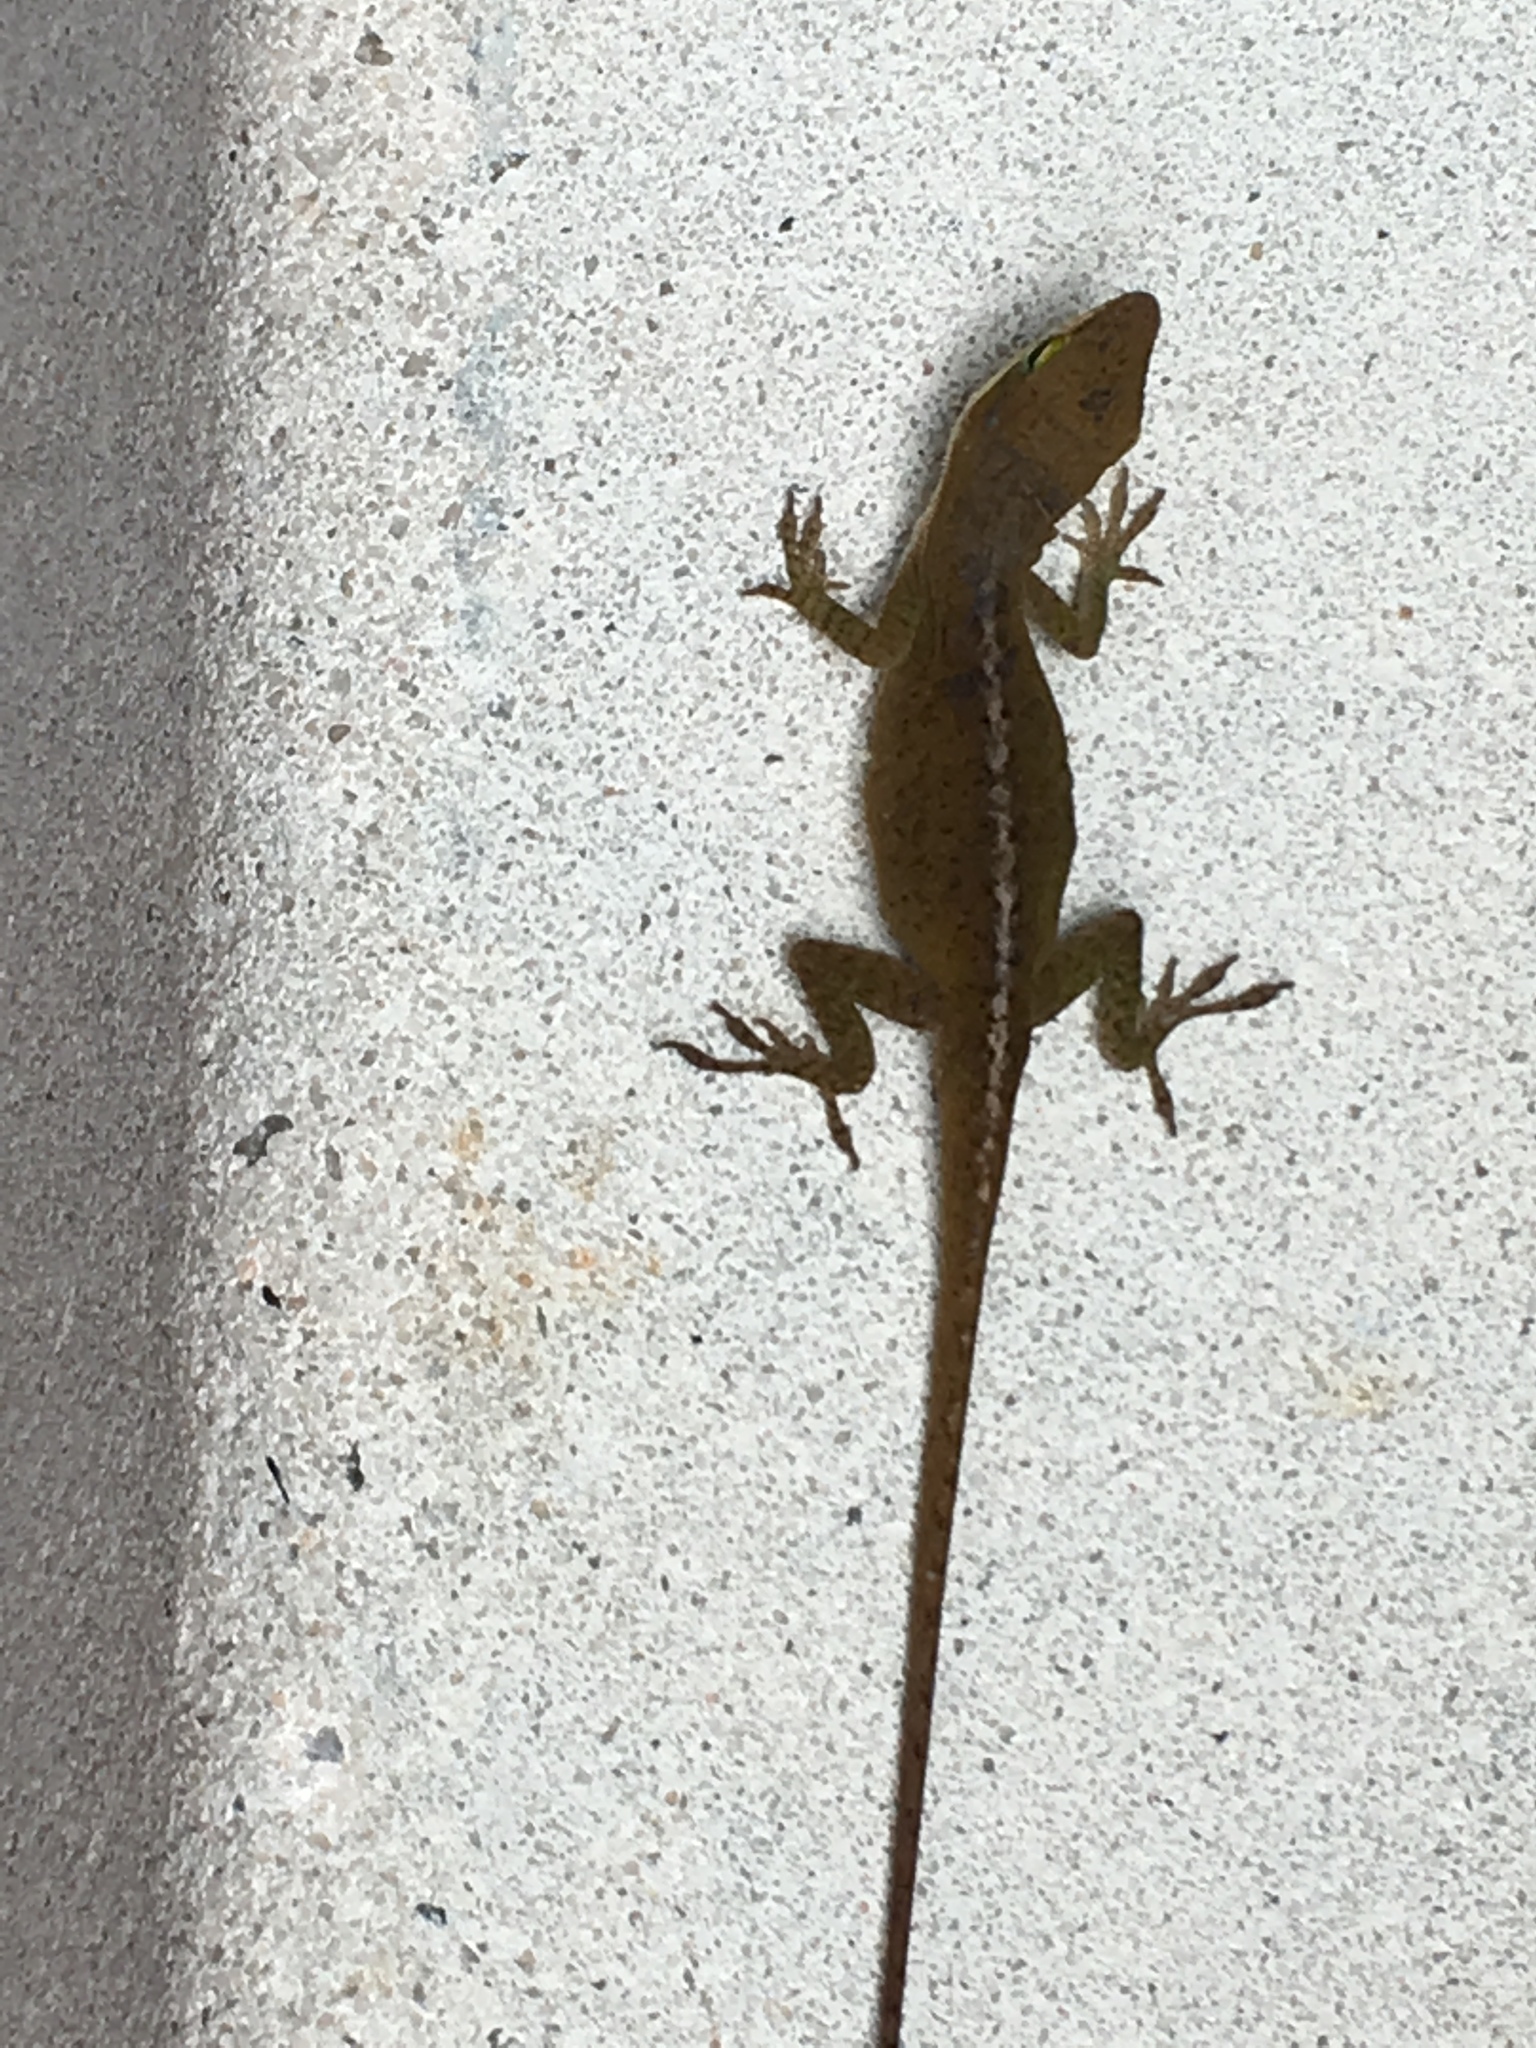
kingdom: Animalia
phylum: Chordata
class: Squamata
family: Dactyloidae
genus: Anolis
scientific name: Anolis carolinensis
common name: Green anole
